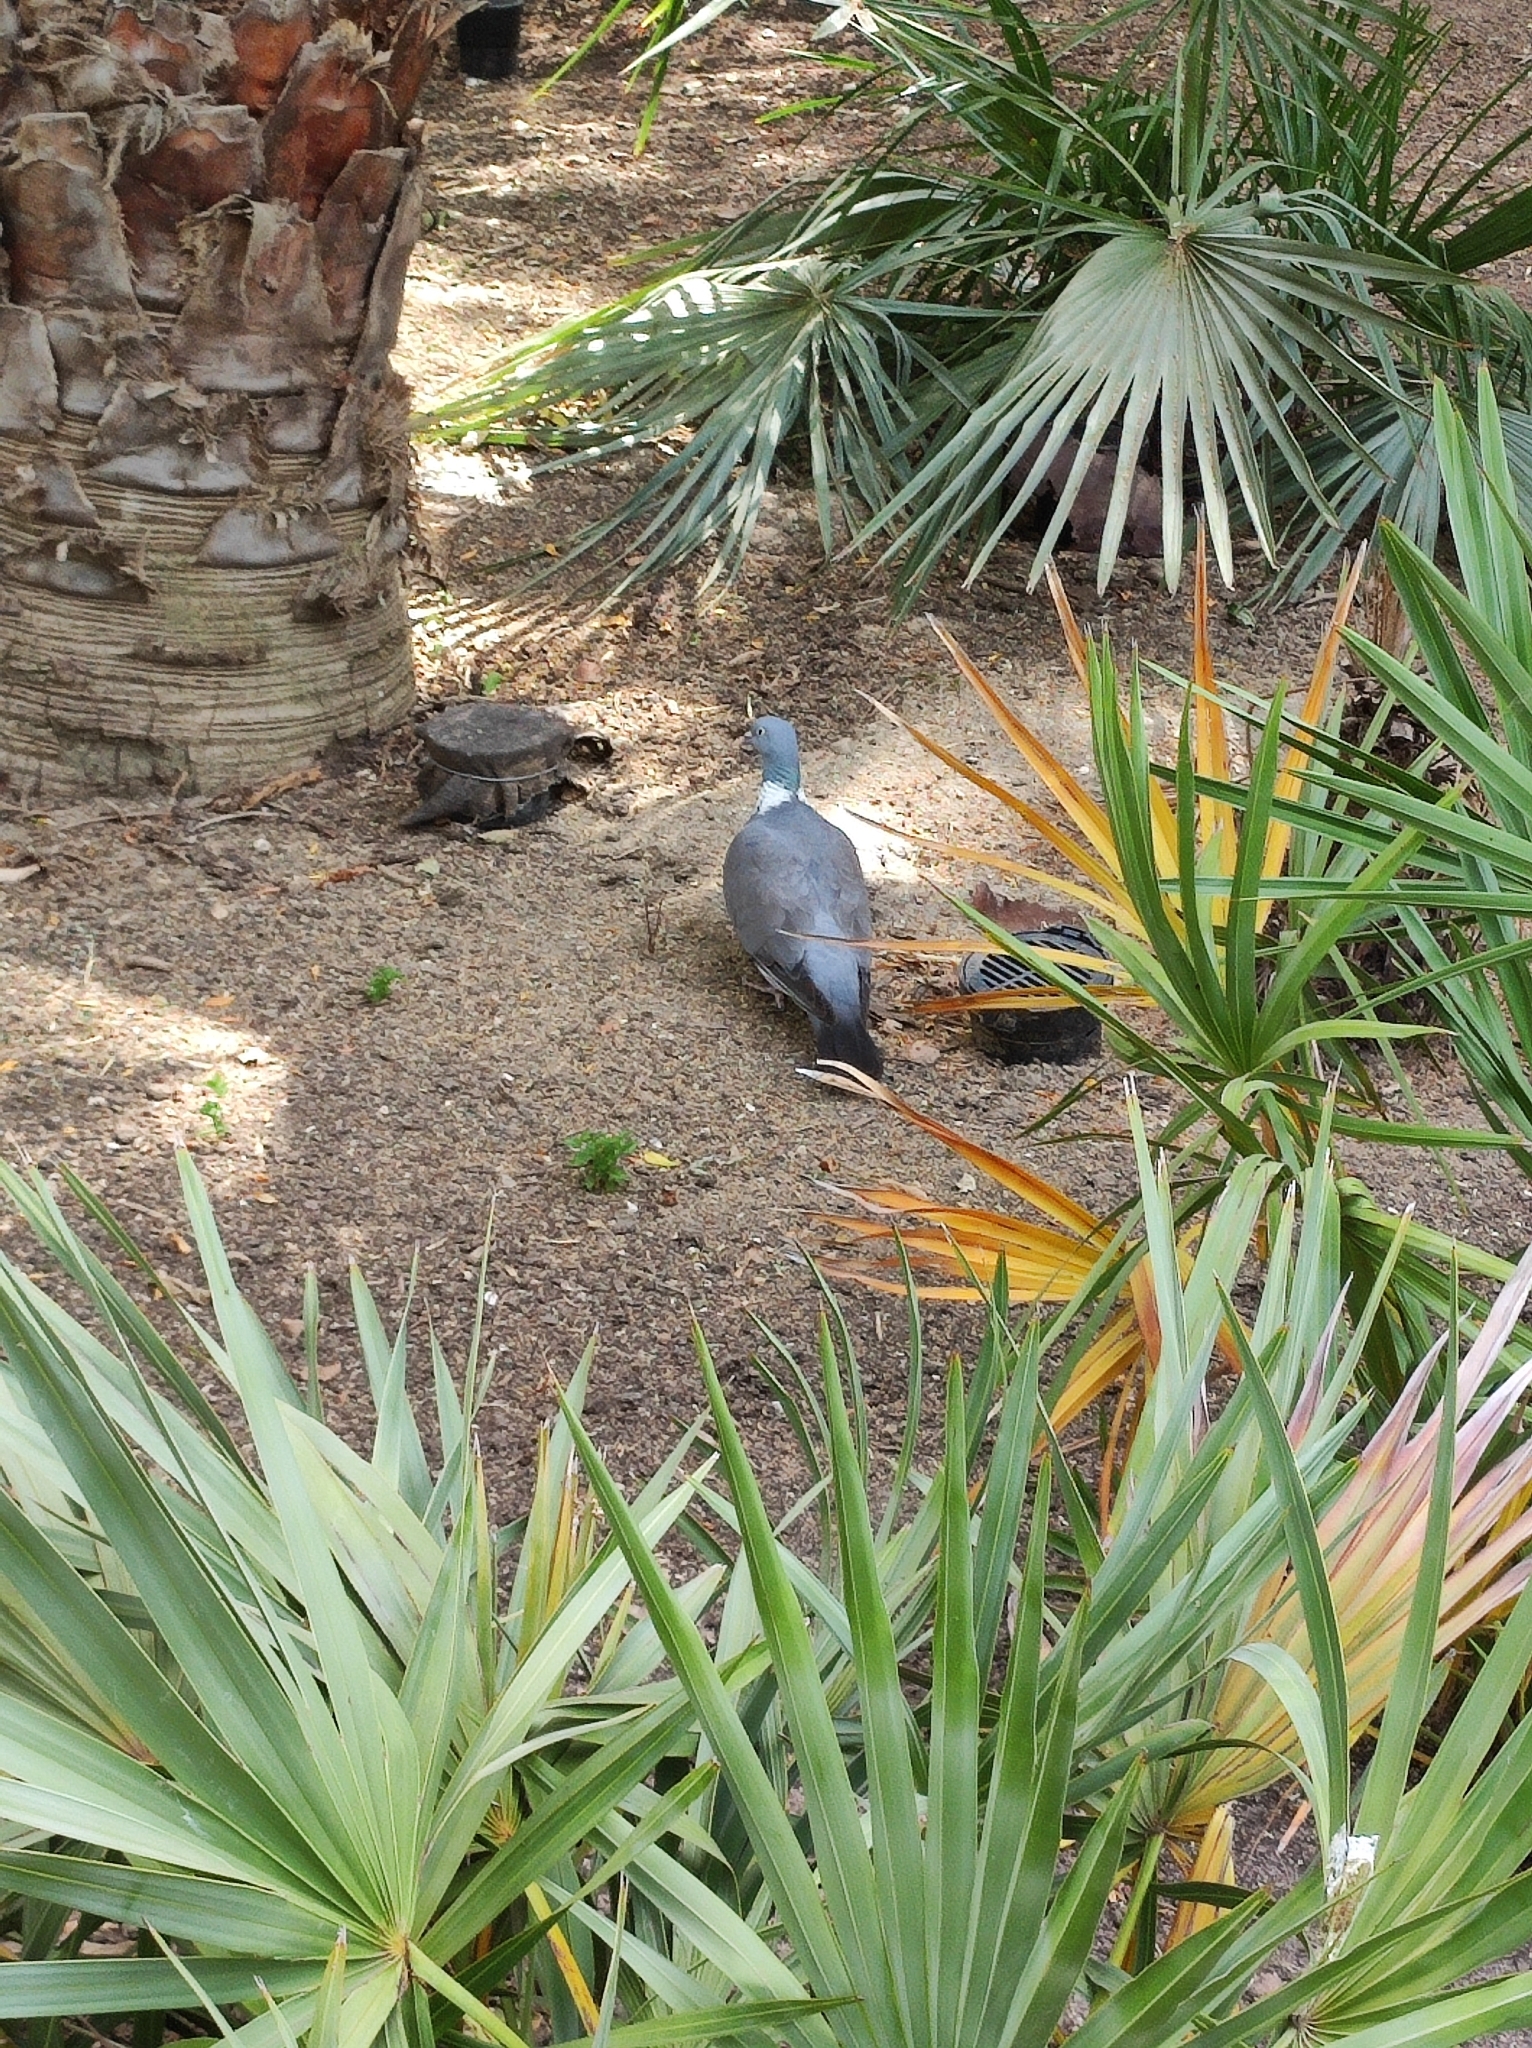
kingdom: Animalia
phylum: Chordata
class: Aves
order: Columbiformes
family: Columbidae
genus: Columba
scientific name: Columba palumbus
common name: Common wood pigeon
